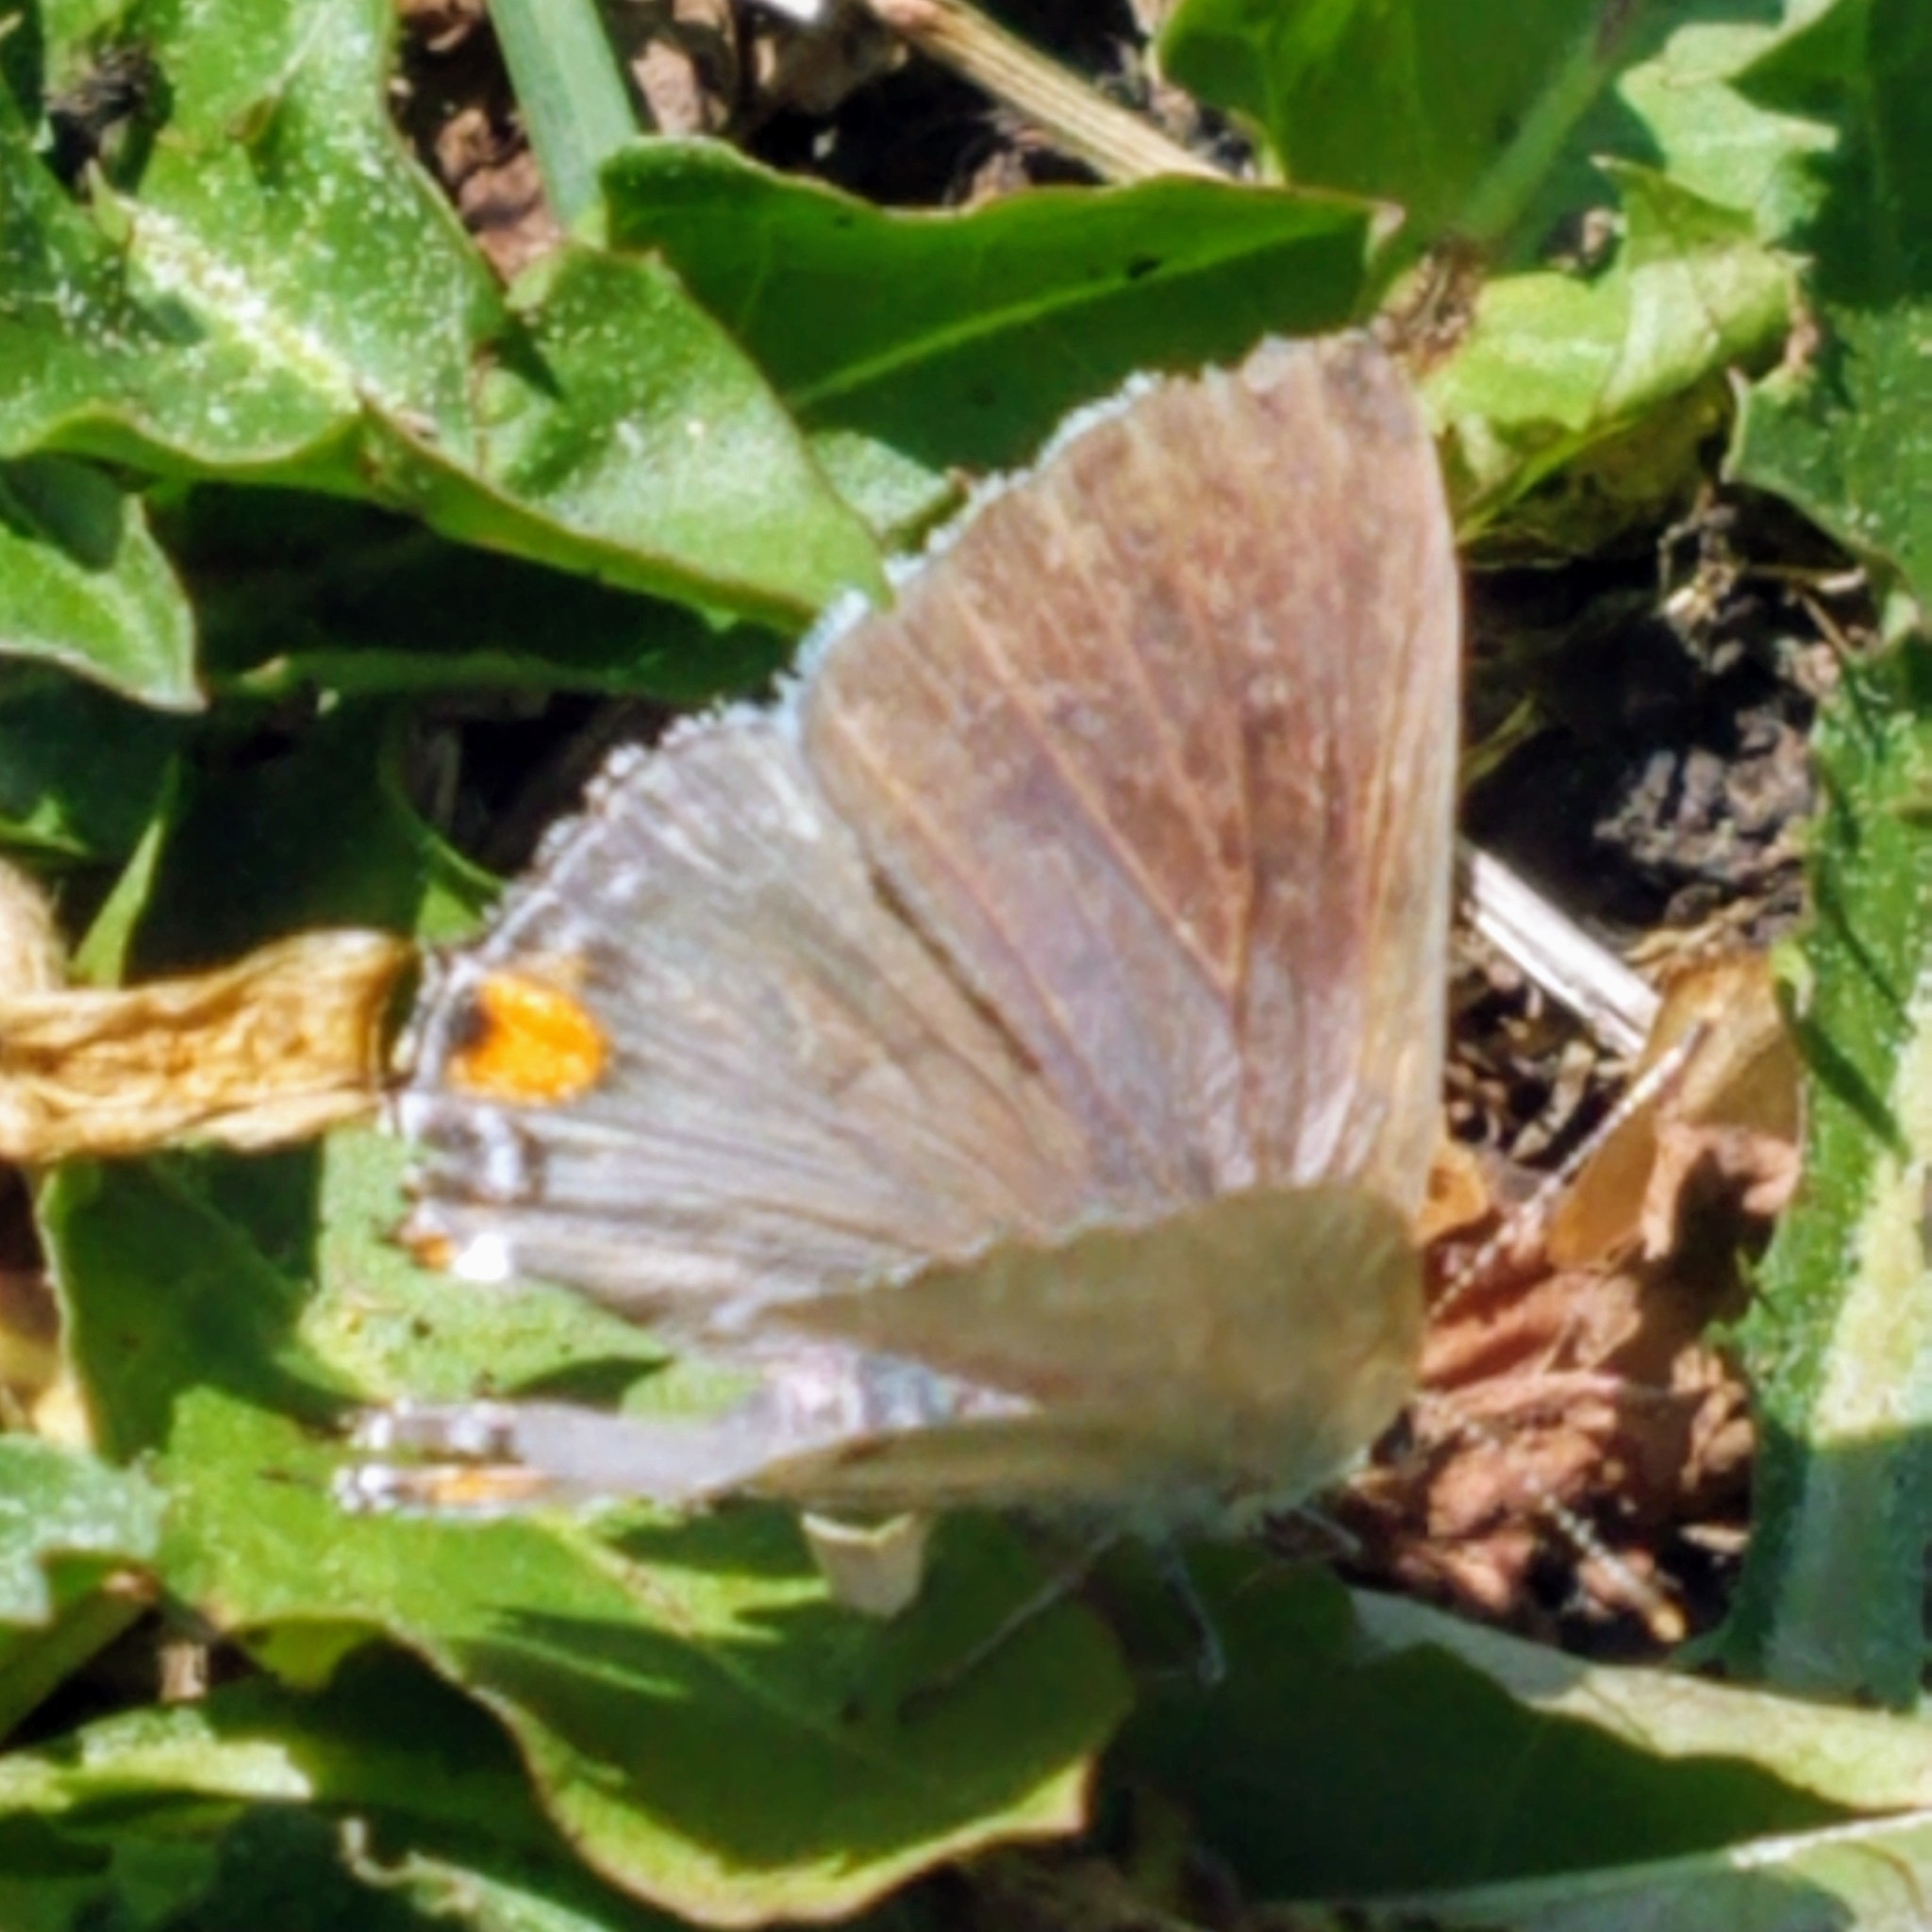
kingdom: Animalia
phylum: Arthropoda
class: Insecta
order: Lepidoptera
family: Lycaenidae
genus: Strymon
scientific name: Strymon melinus
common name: Gray hairstreak
